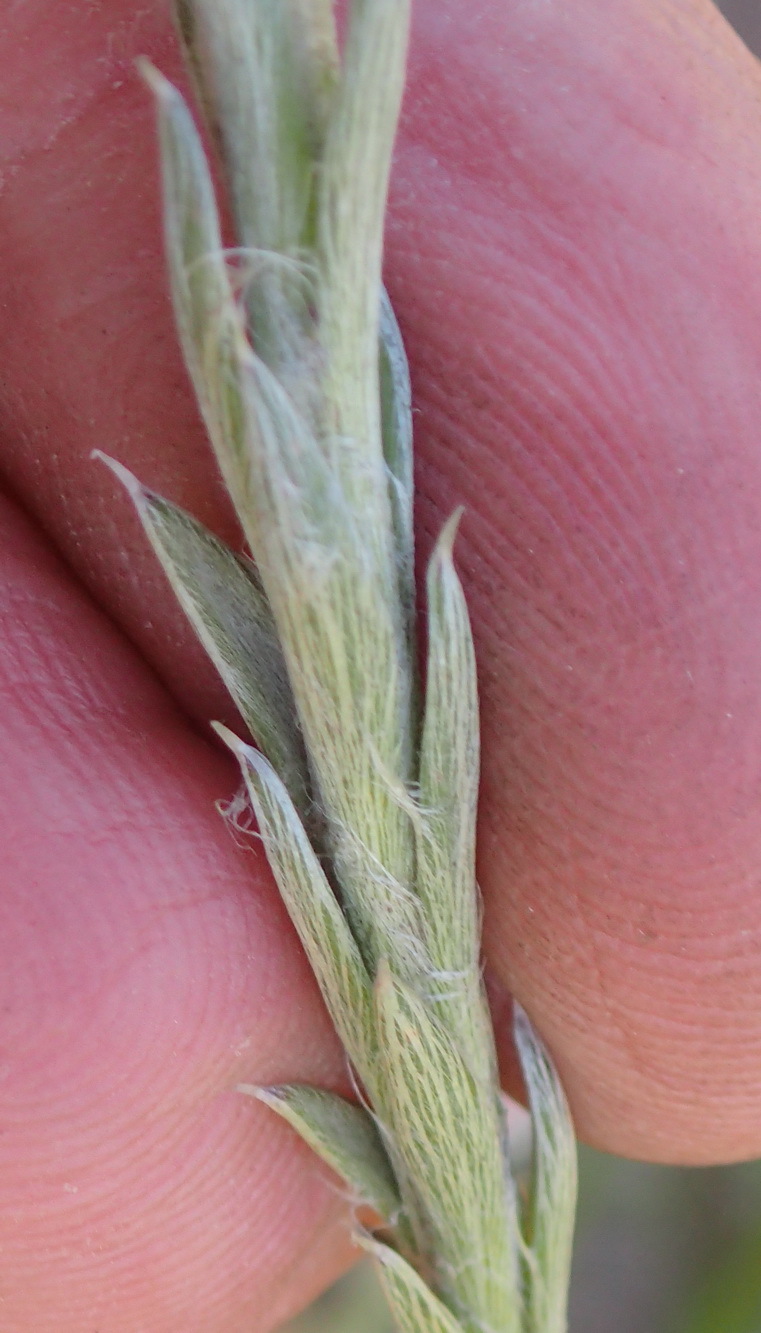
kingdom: Plantae
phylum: Tracheophyta
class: Magnoliopsida
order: Asterales
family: Asteraceae
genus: Achyranthemum
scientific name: Achyranthemum paniculatum
